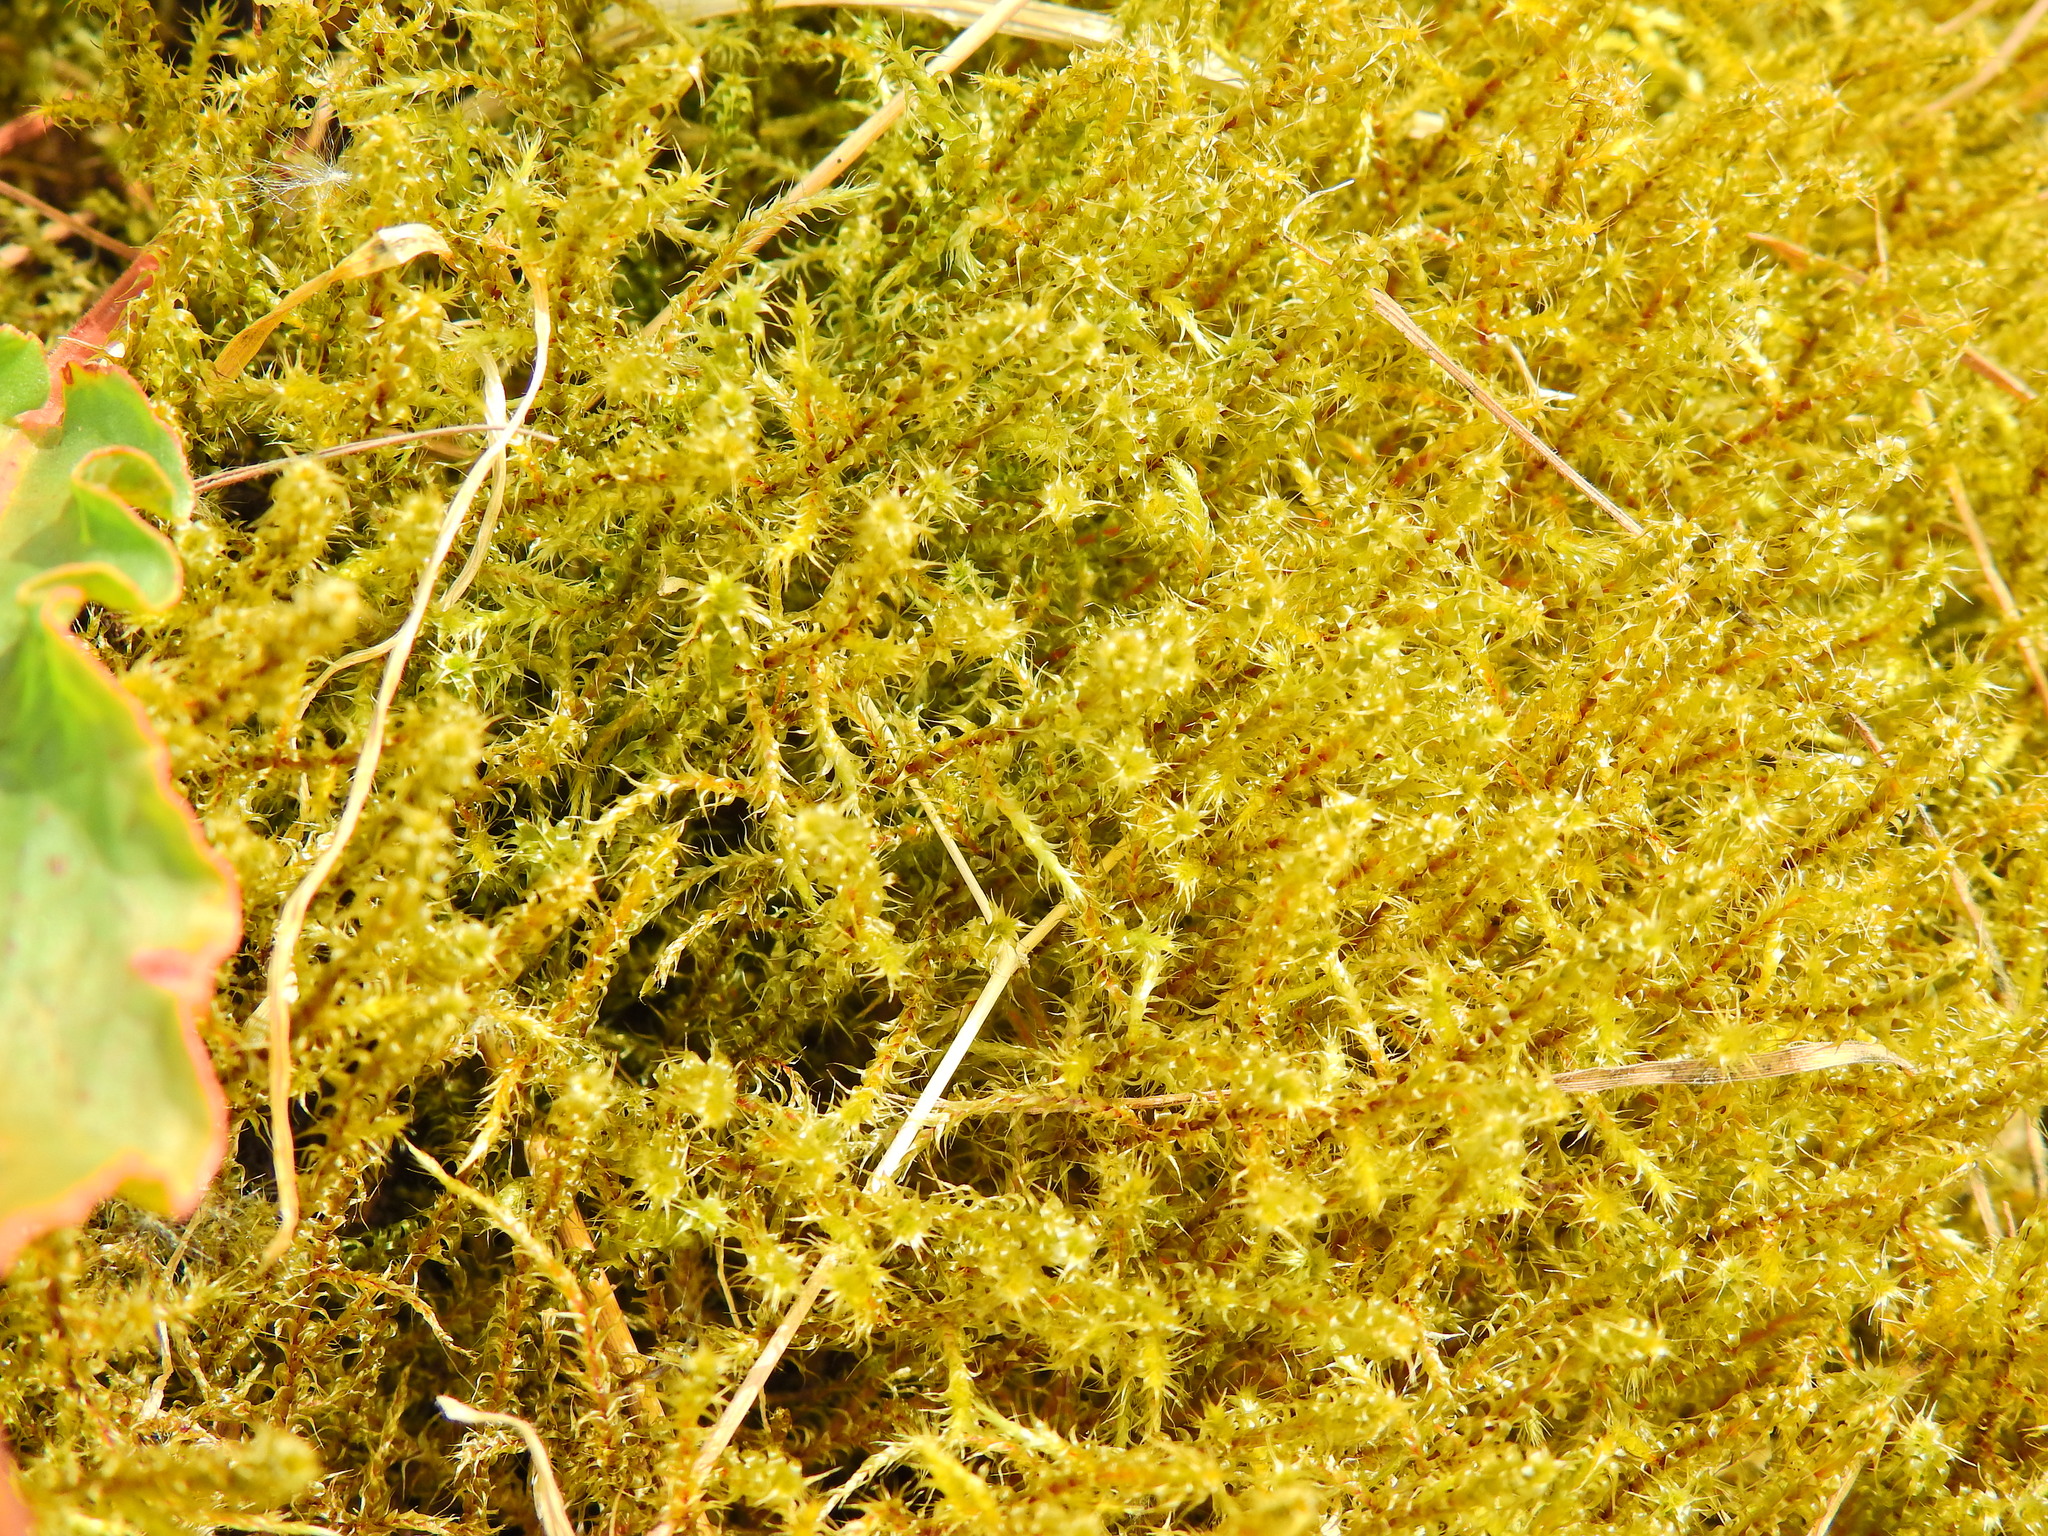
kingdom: Plantae
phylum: Bryophyta
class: Bryopsida
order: Hypnales
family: Hylocomiaceae
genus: Rhytidiadelphus
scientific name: Rhytidiadelphus squarrosus
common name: Springy turf-moss
